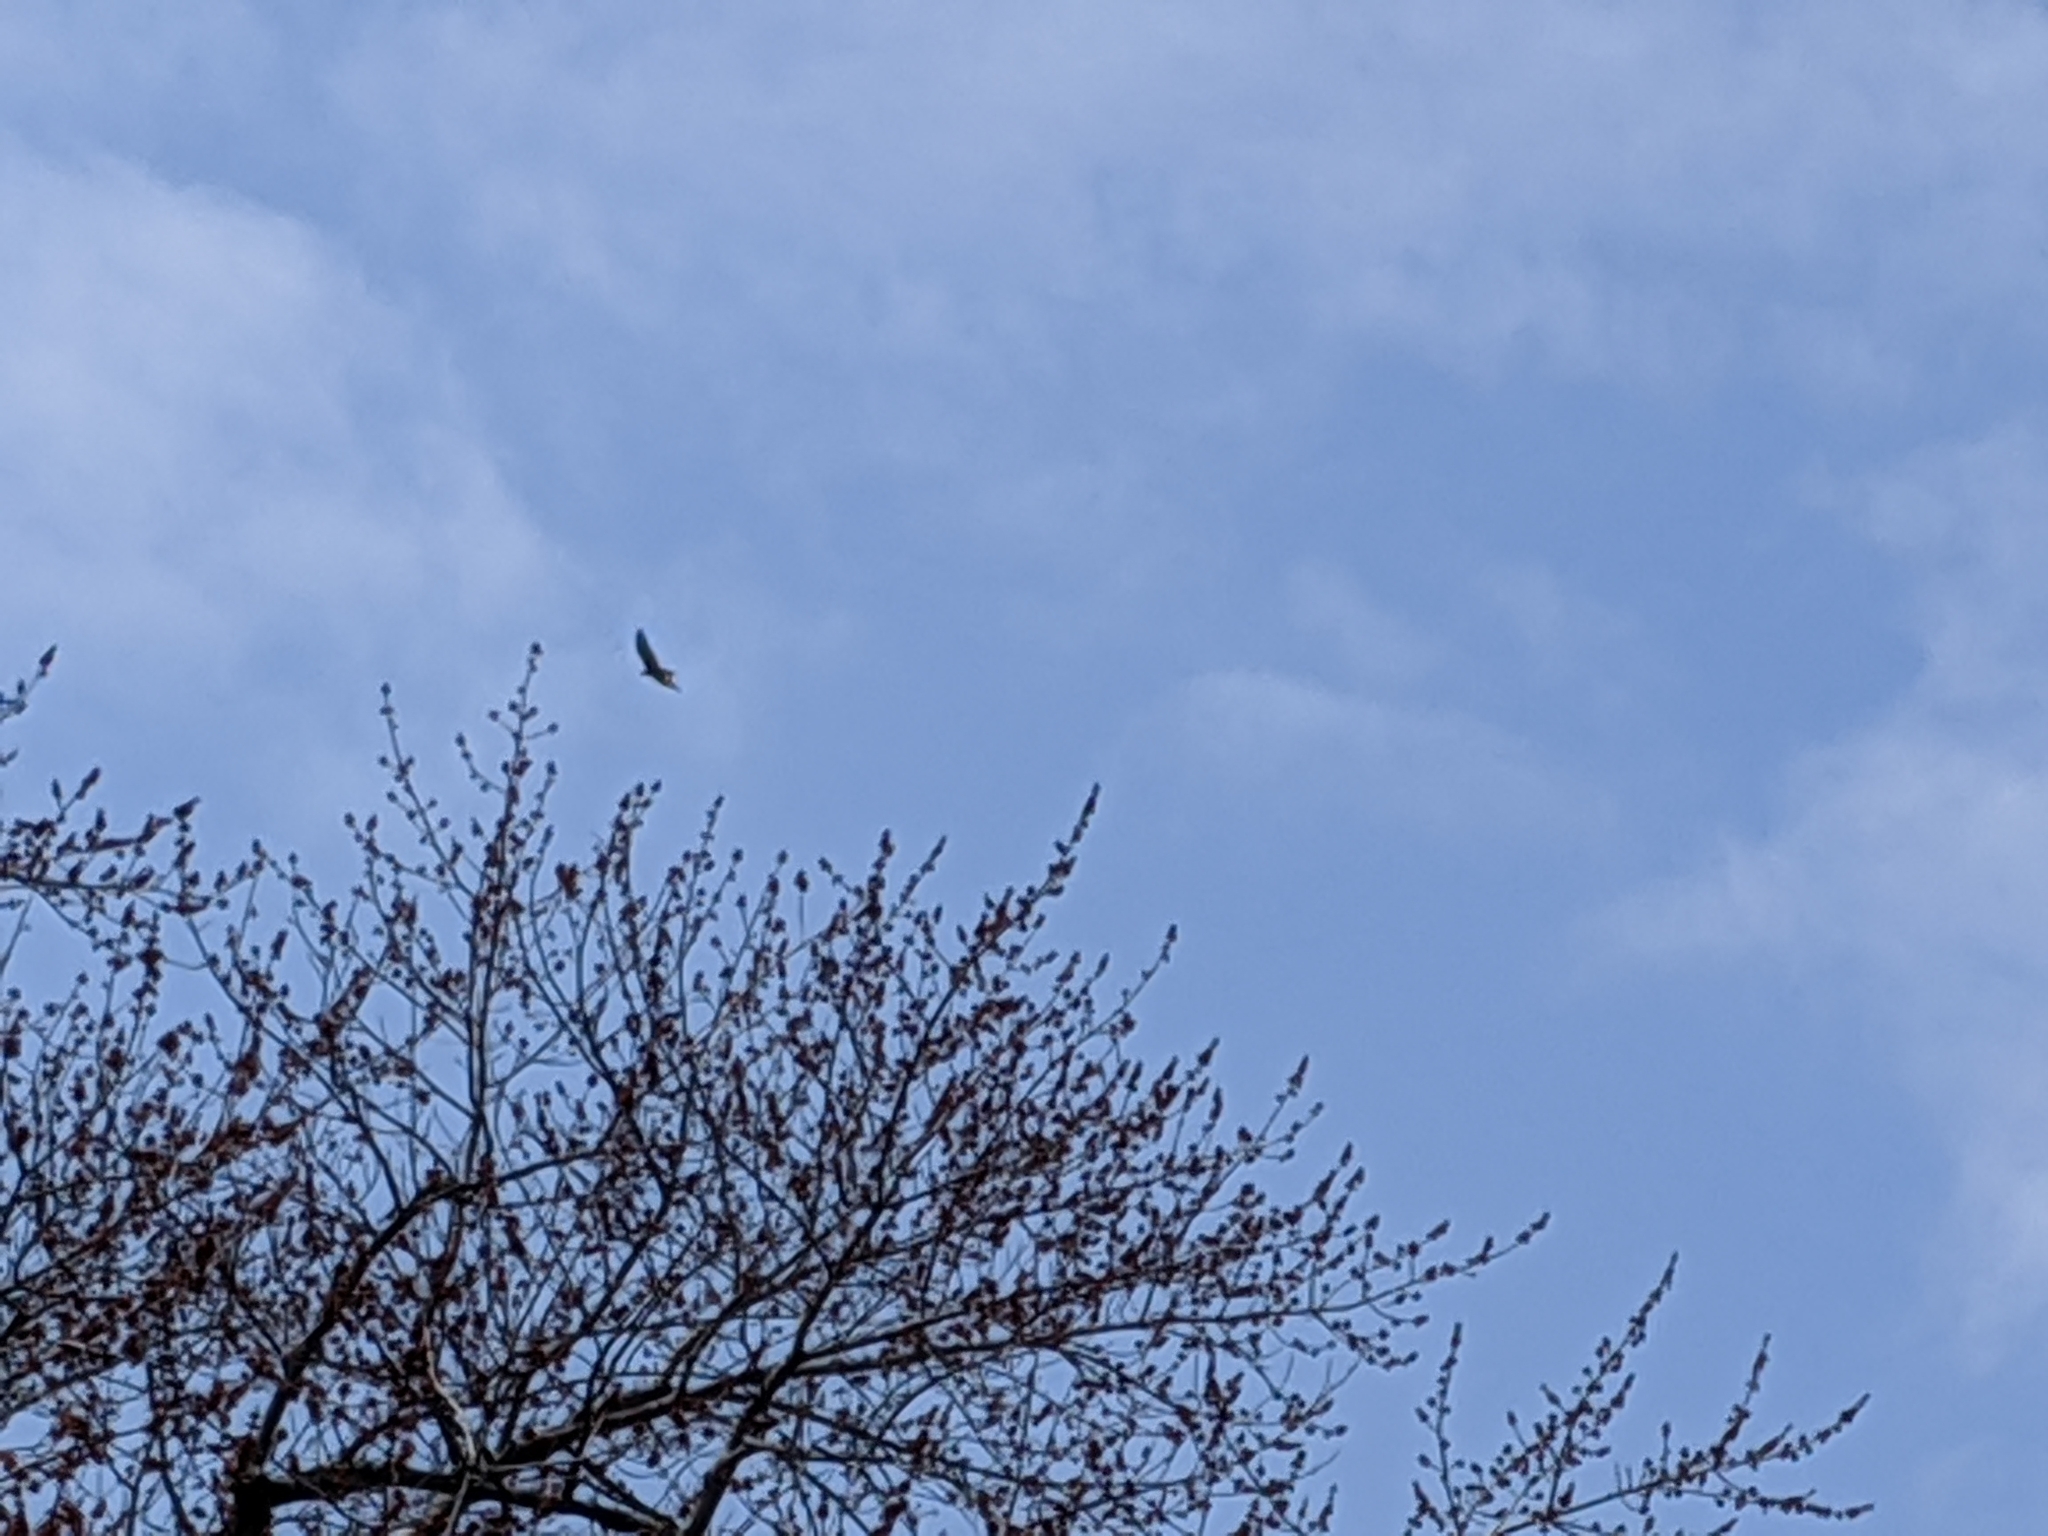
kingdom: Animalia
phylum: Chordata
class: Aves
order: Accipitriformes
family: Cathartidae
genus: Cathartes
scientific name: Cathartes aura
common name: Turkey vulture
